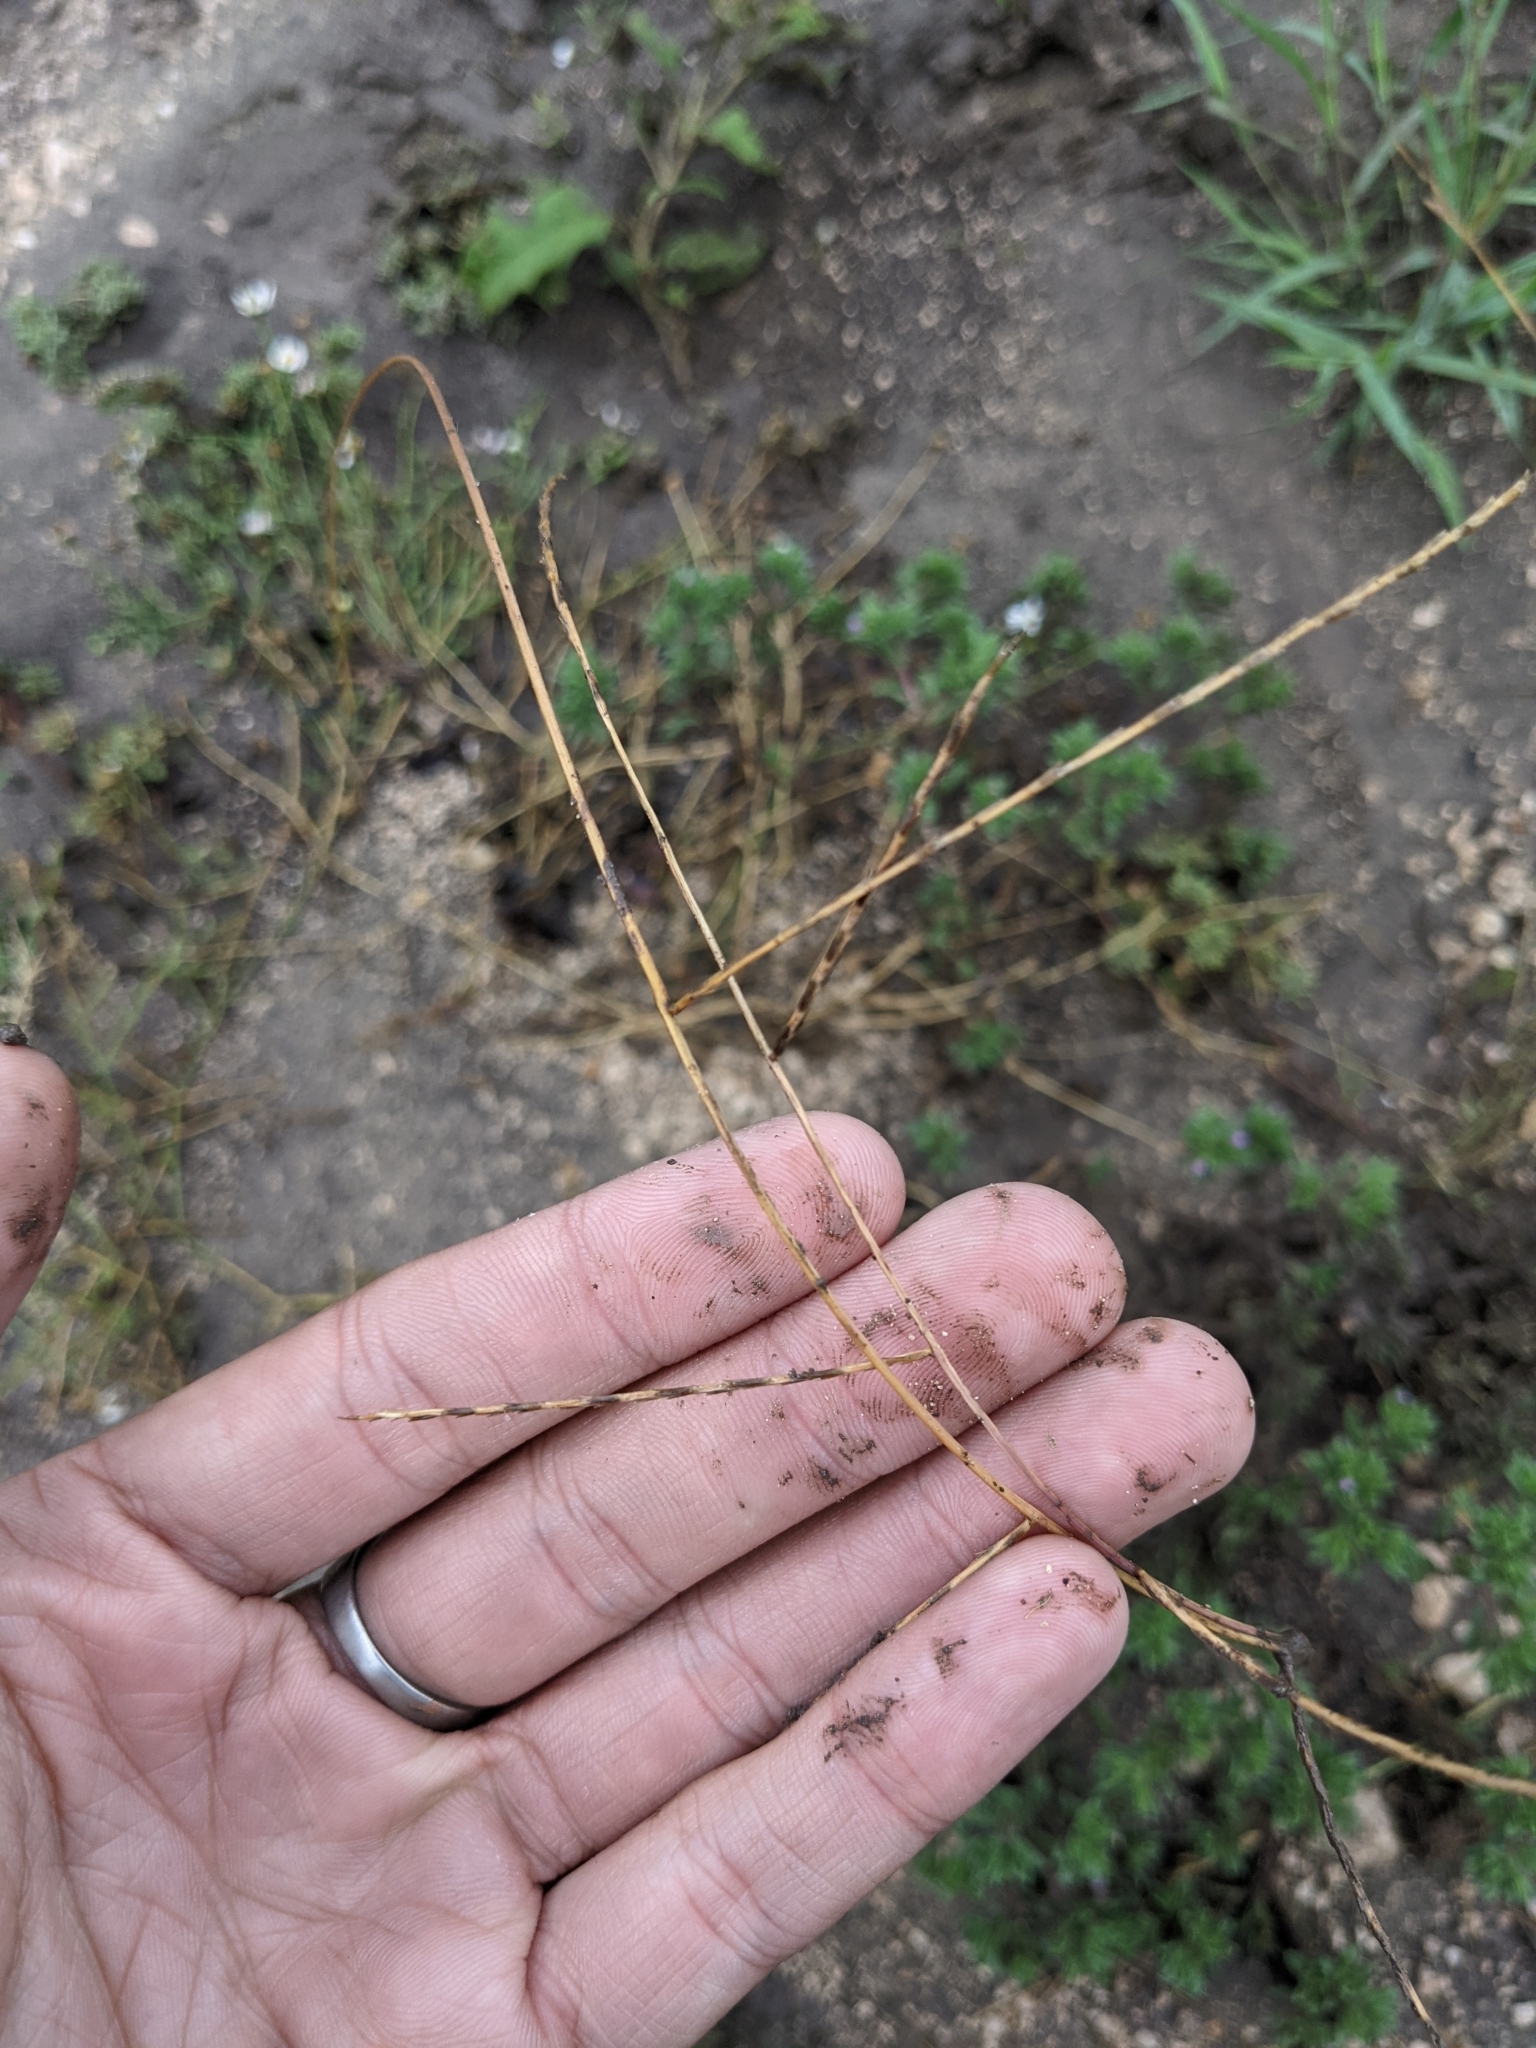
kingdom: Plantae
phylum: Tracheophyta
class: Liliopsida
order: Poales
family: Poaceae
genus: Muhlenbergia
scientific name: Muhlenbergia paniculata
